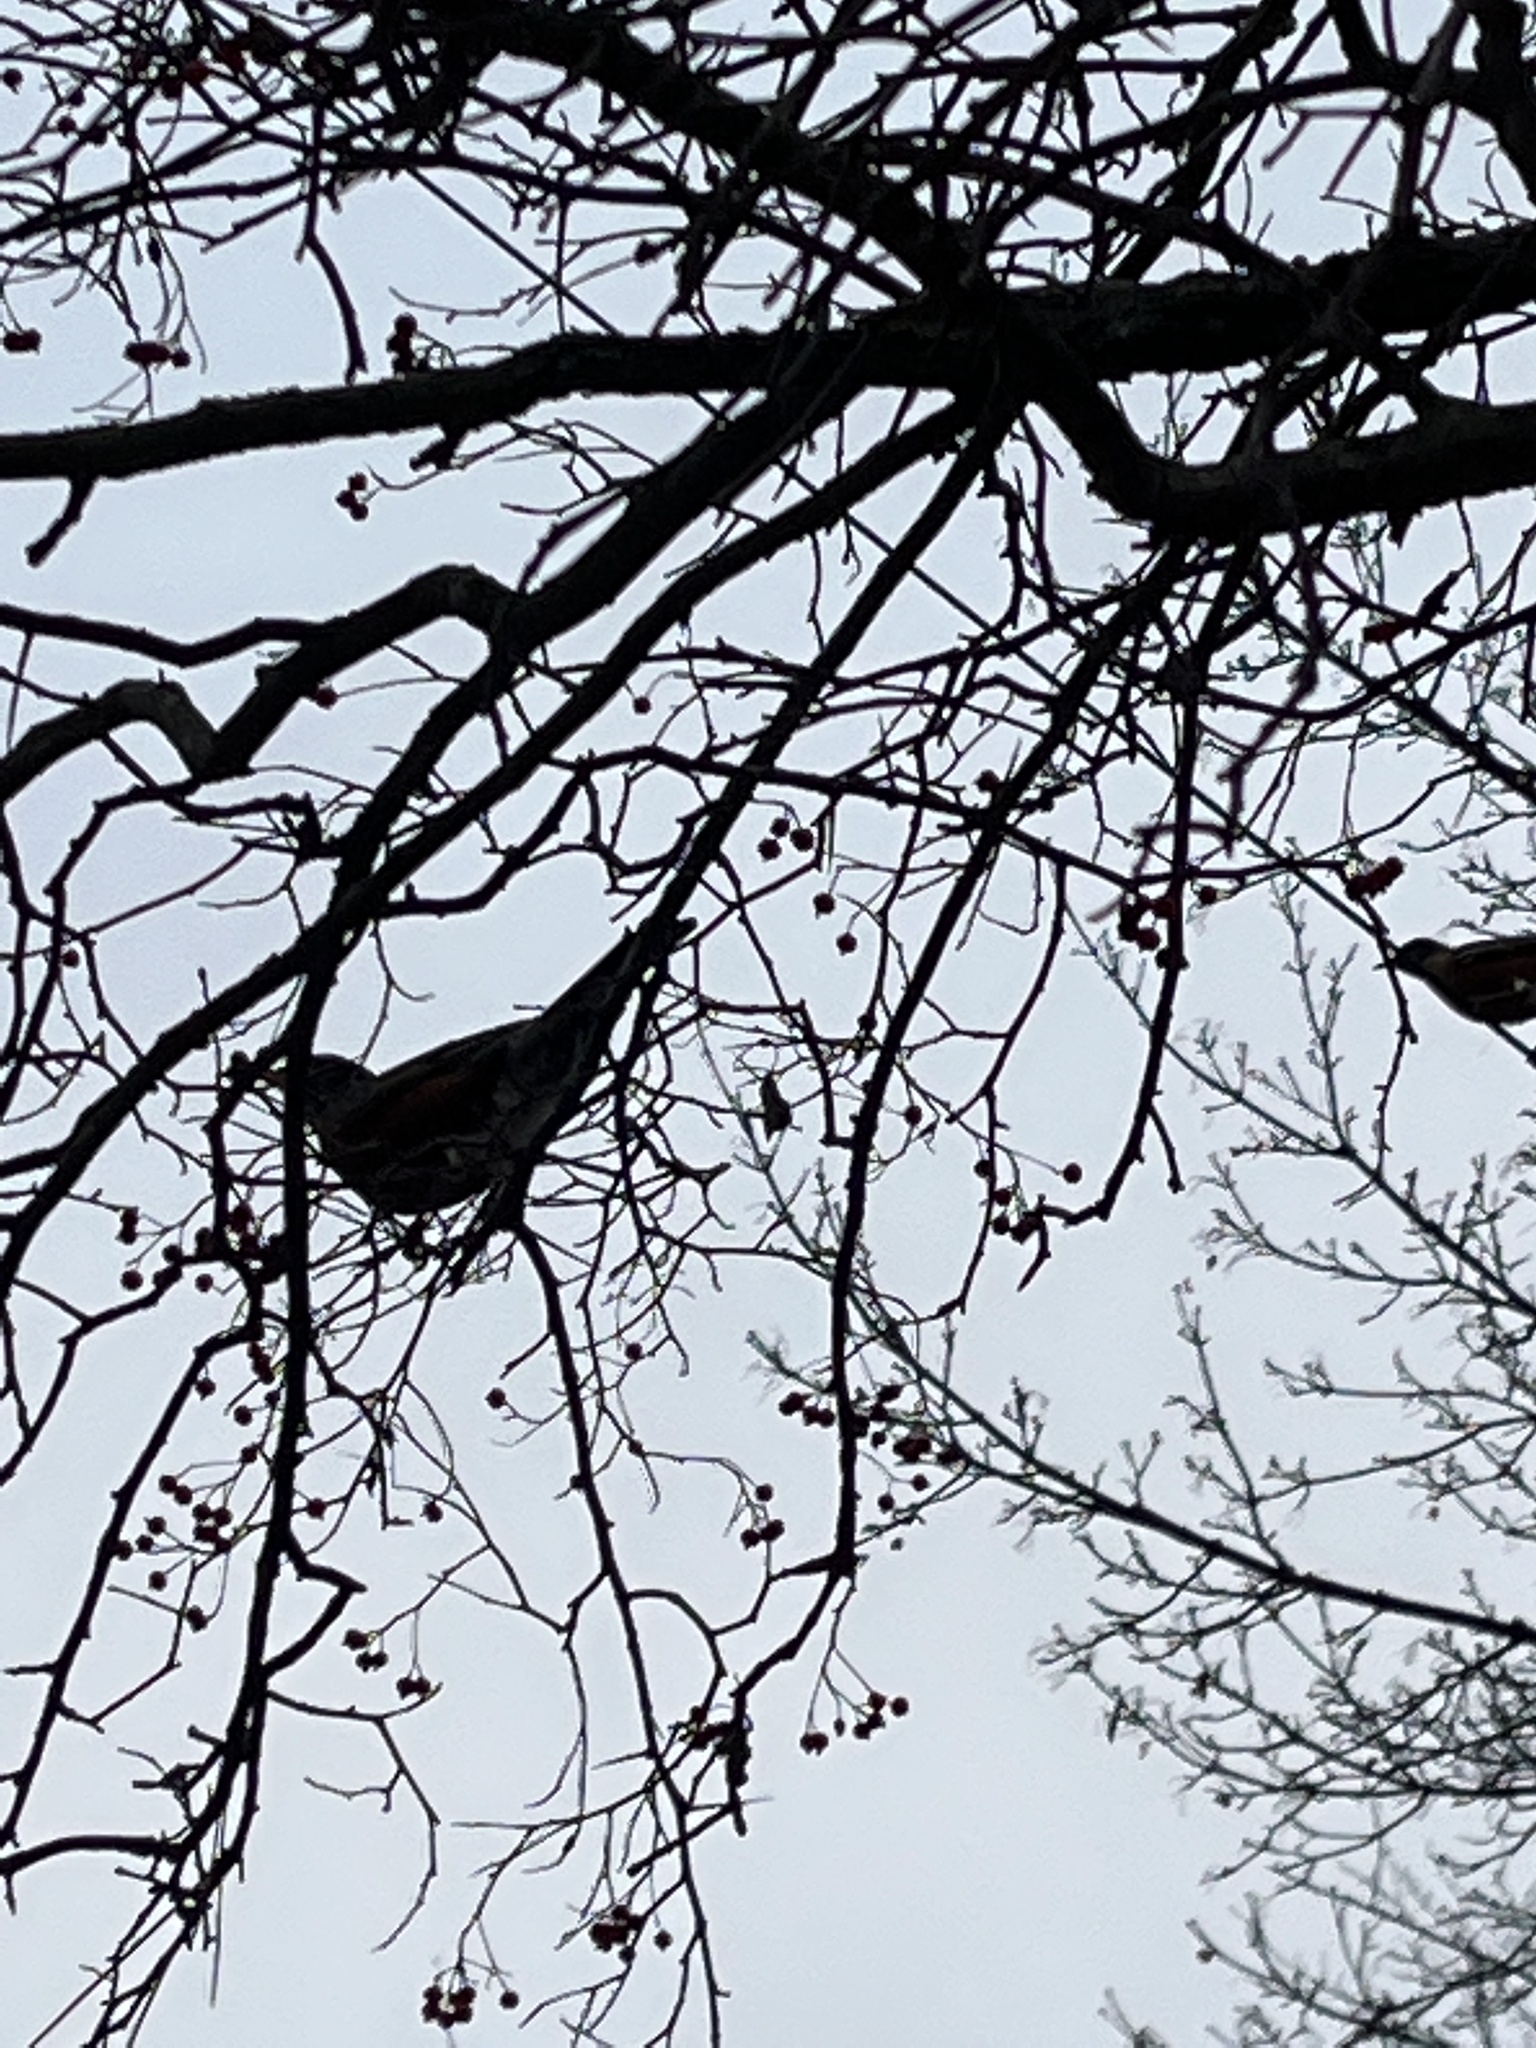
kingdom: Animalia
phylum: Chordata
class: Aves
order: Passeriformes
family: Turdidae
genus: Turdus
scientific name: Turdus migratorius
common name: American robin
